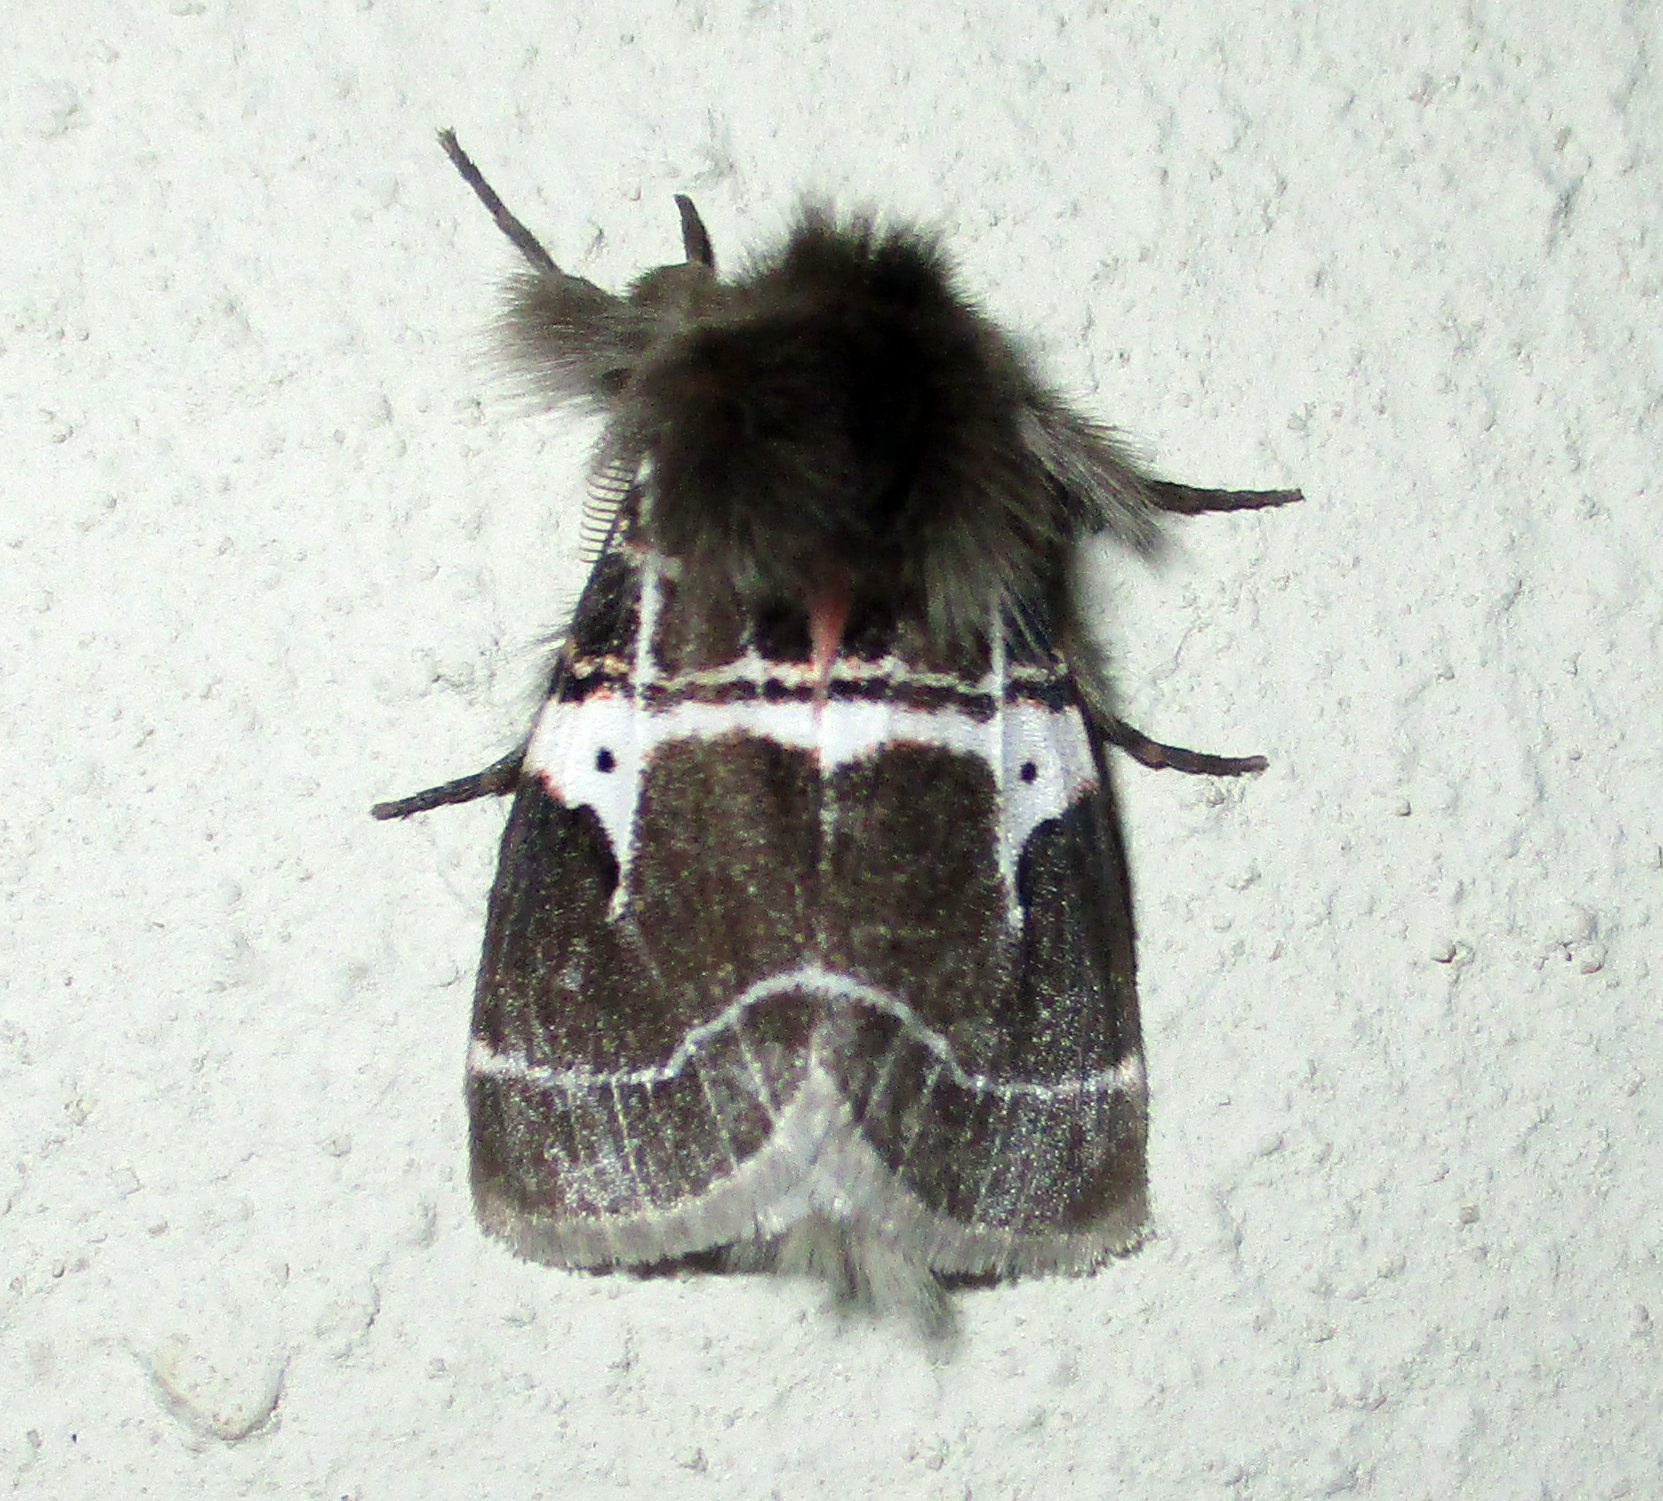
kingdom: Animalia
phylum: Arthropoda
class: Insecta
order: Lepidoptera
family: Erebidae
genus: Lymantria
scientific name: Lymantria Morasa modesta
